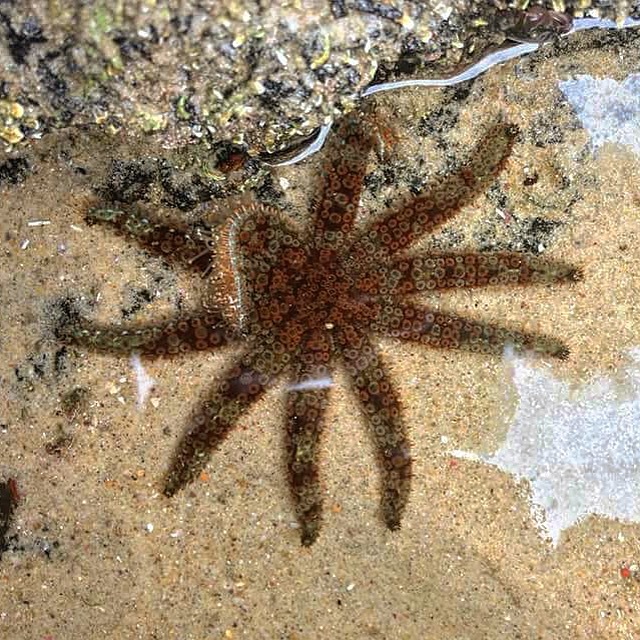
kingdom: Animalia
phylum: Echinodermata
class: Asteroidea
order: Forcipulatida
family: Asteriidae
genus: Coscinasterias
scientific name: Coscinasterias muricata
